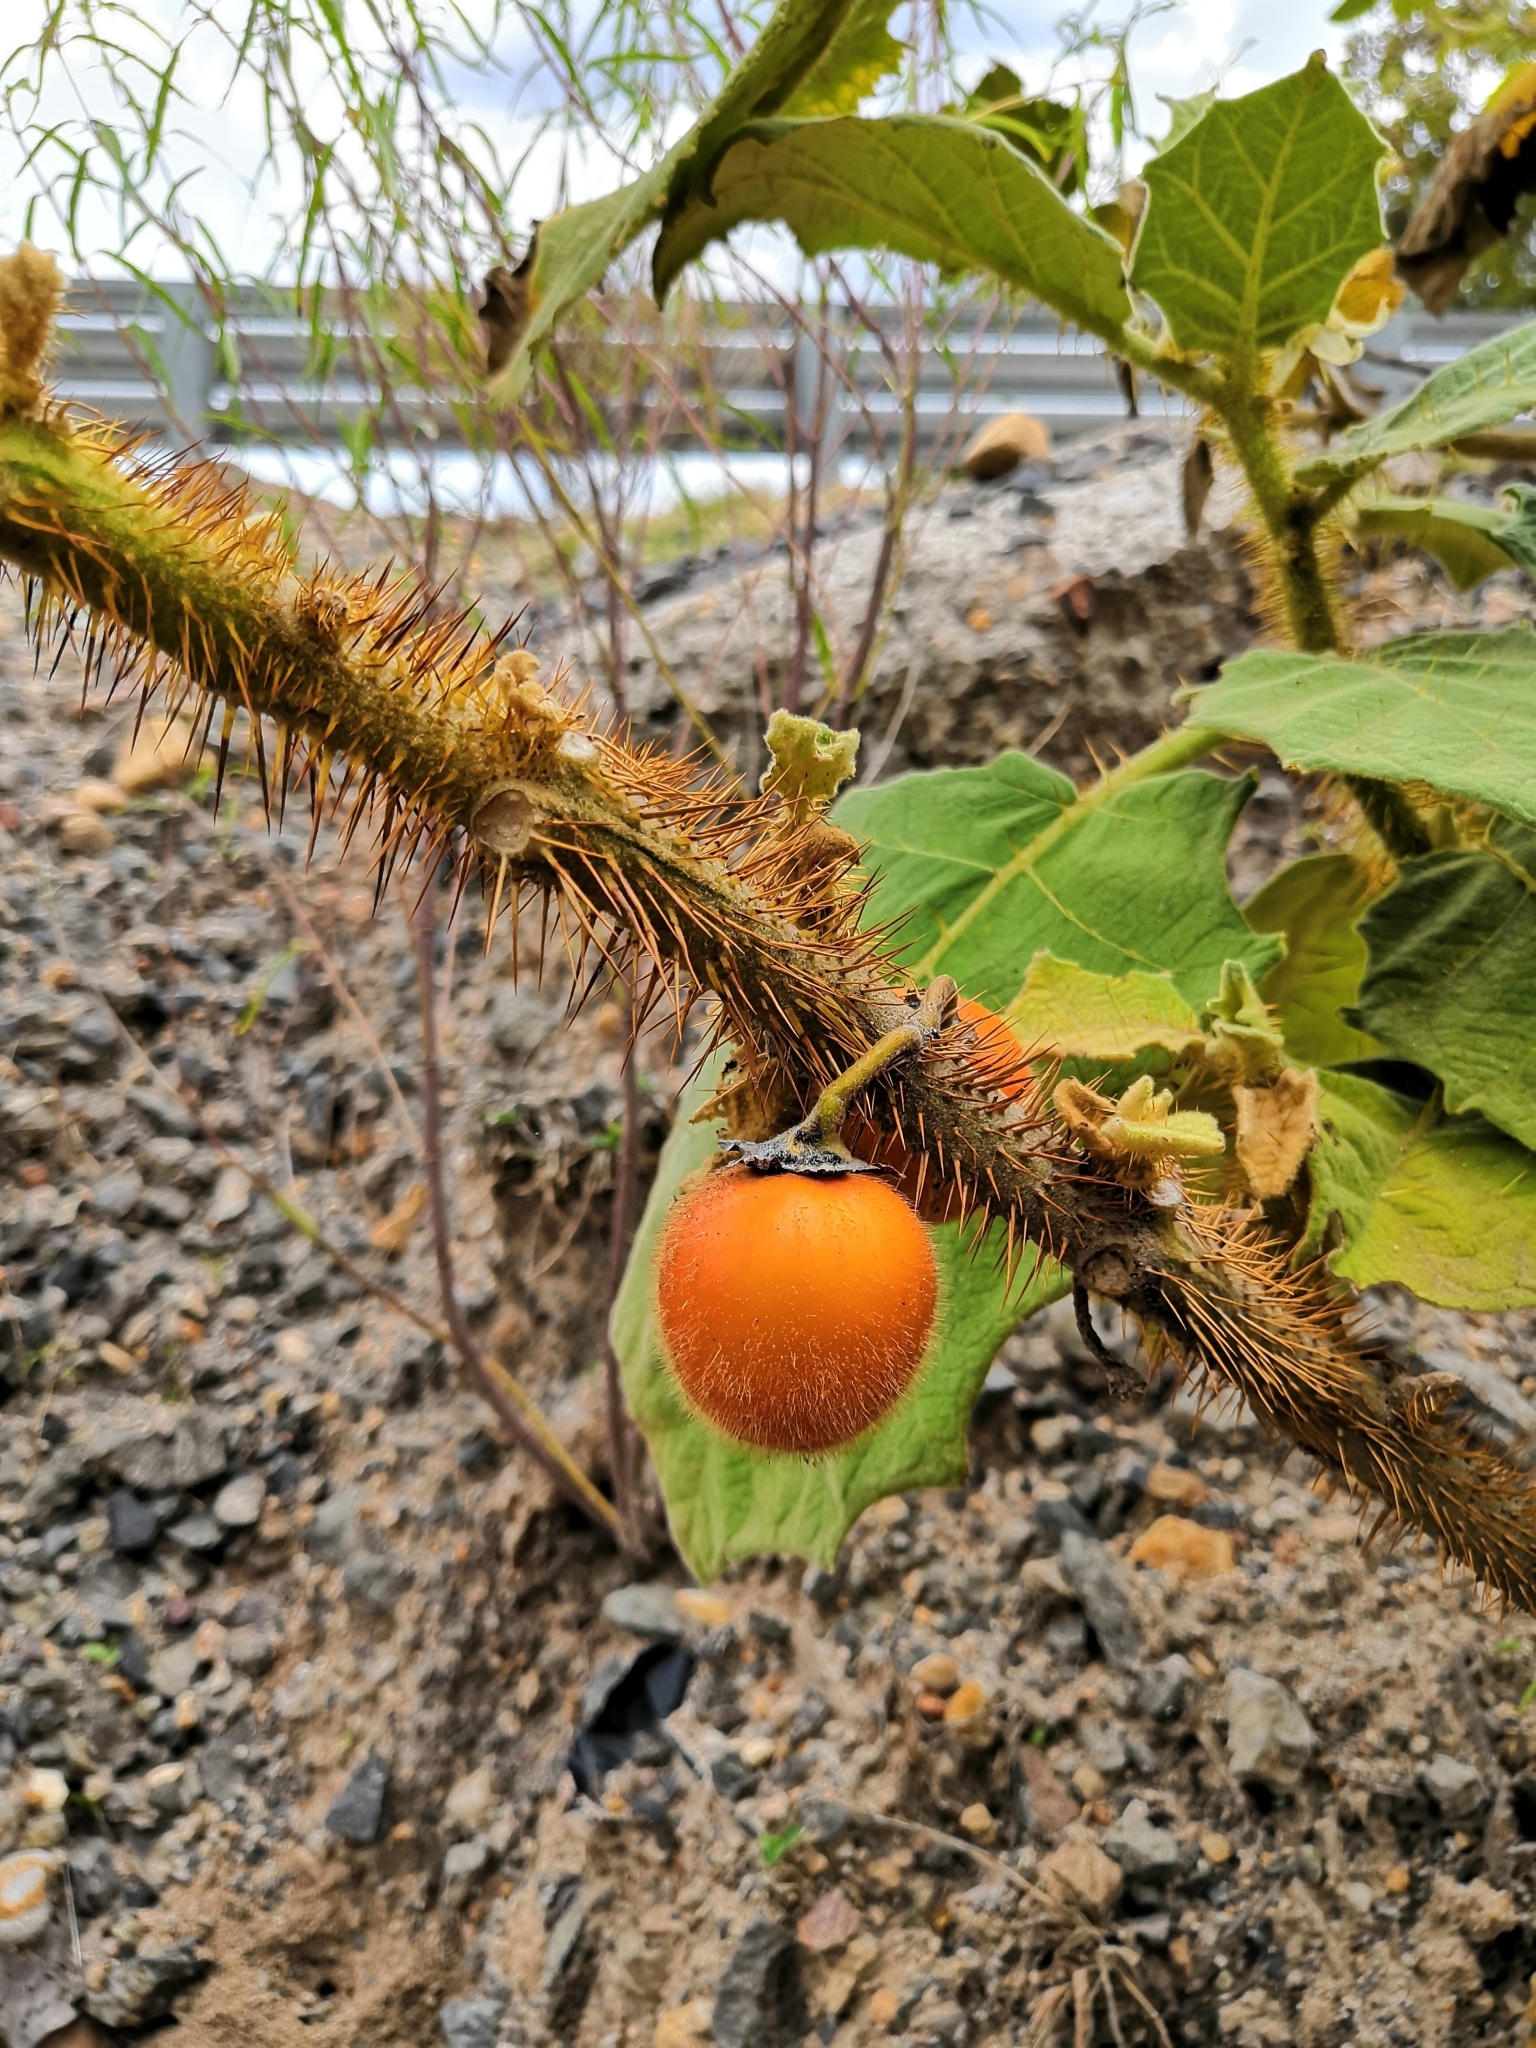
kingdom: Plantae
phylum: Tracheophyta
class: Magnoliopsida
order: Solanales
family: Solanaceae
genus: Solanum
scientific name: Solanum candidum
